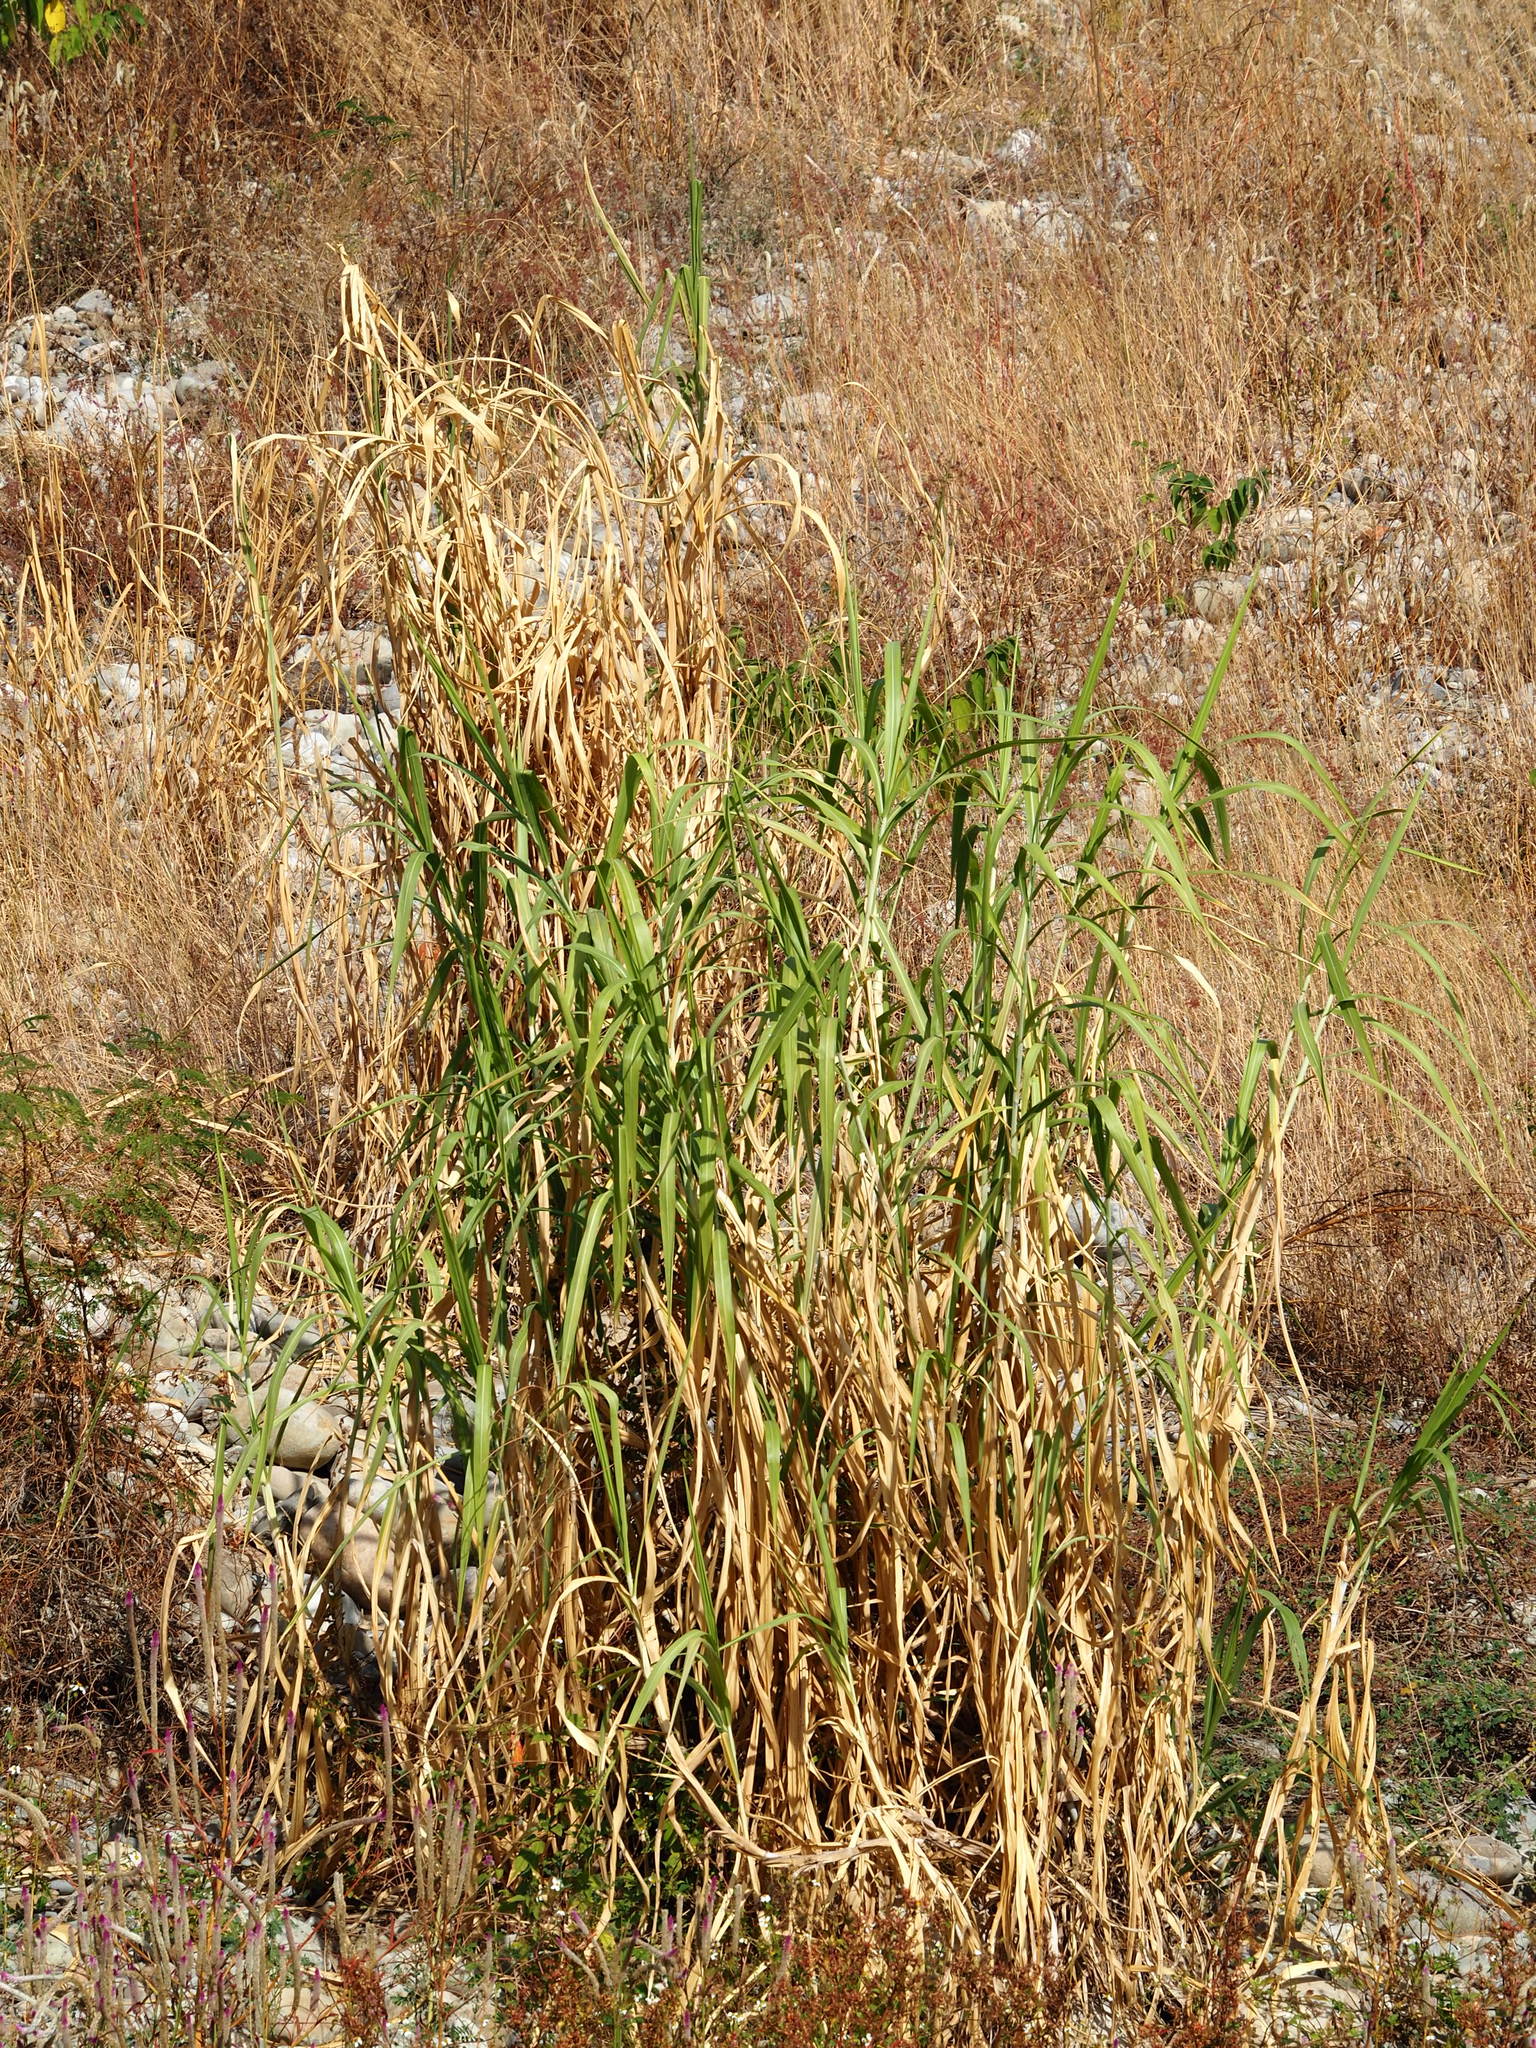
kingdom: Plantae
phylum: Tracheophyta
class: Liliopsida
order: Poales
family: Poaceae
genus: Cenchrus
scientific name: Cenchrus purpureus
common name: Elephant grass
